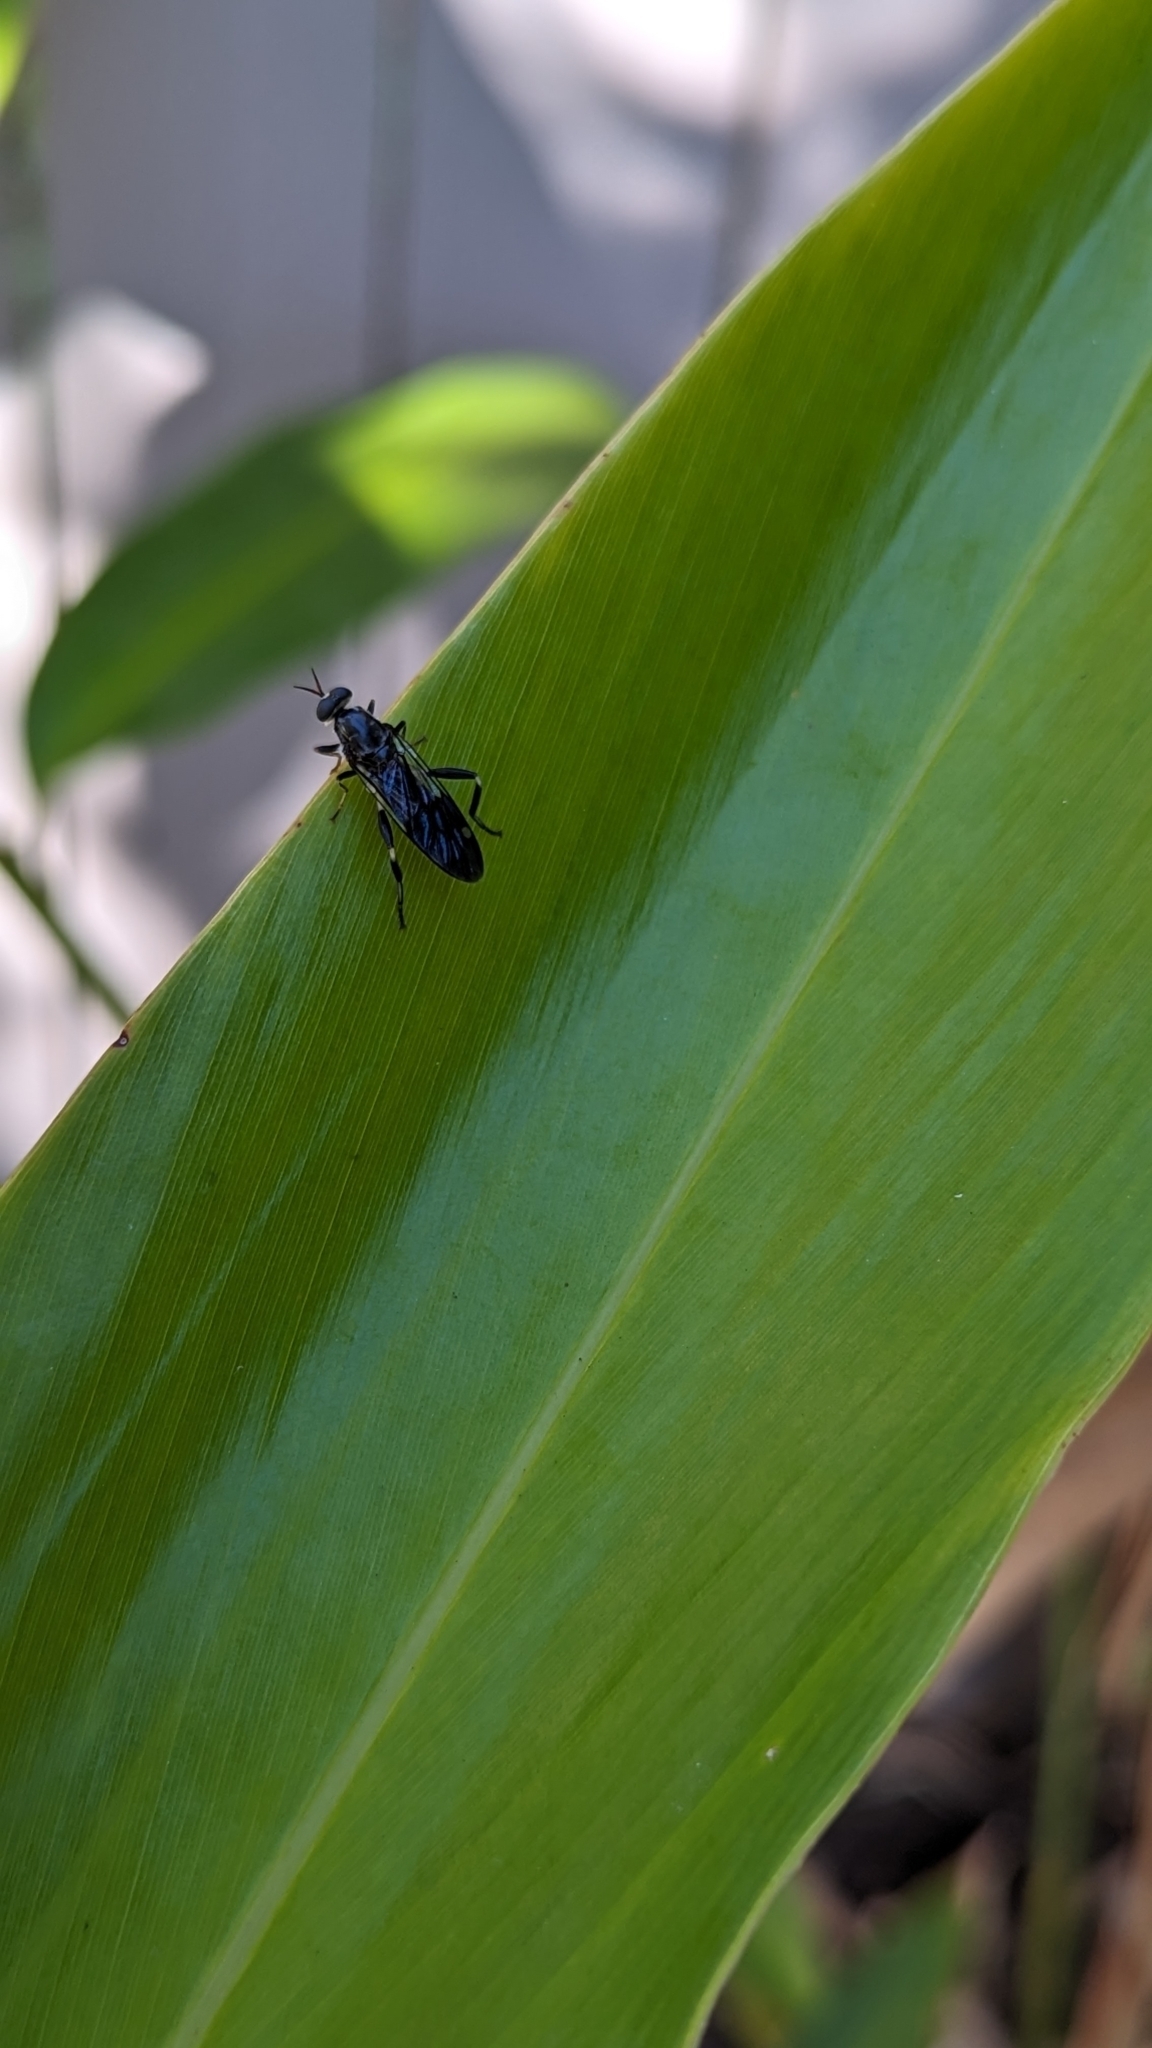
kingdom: Animalia
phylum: Arthropoda
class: Insecta
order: Diptera
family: Stratiomyidae
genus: Exaireta
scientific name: Exaireta spinigera
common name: Blue soldier fly
